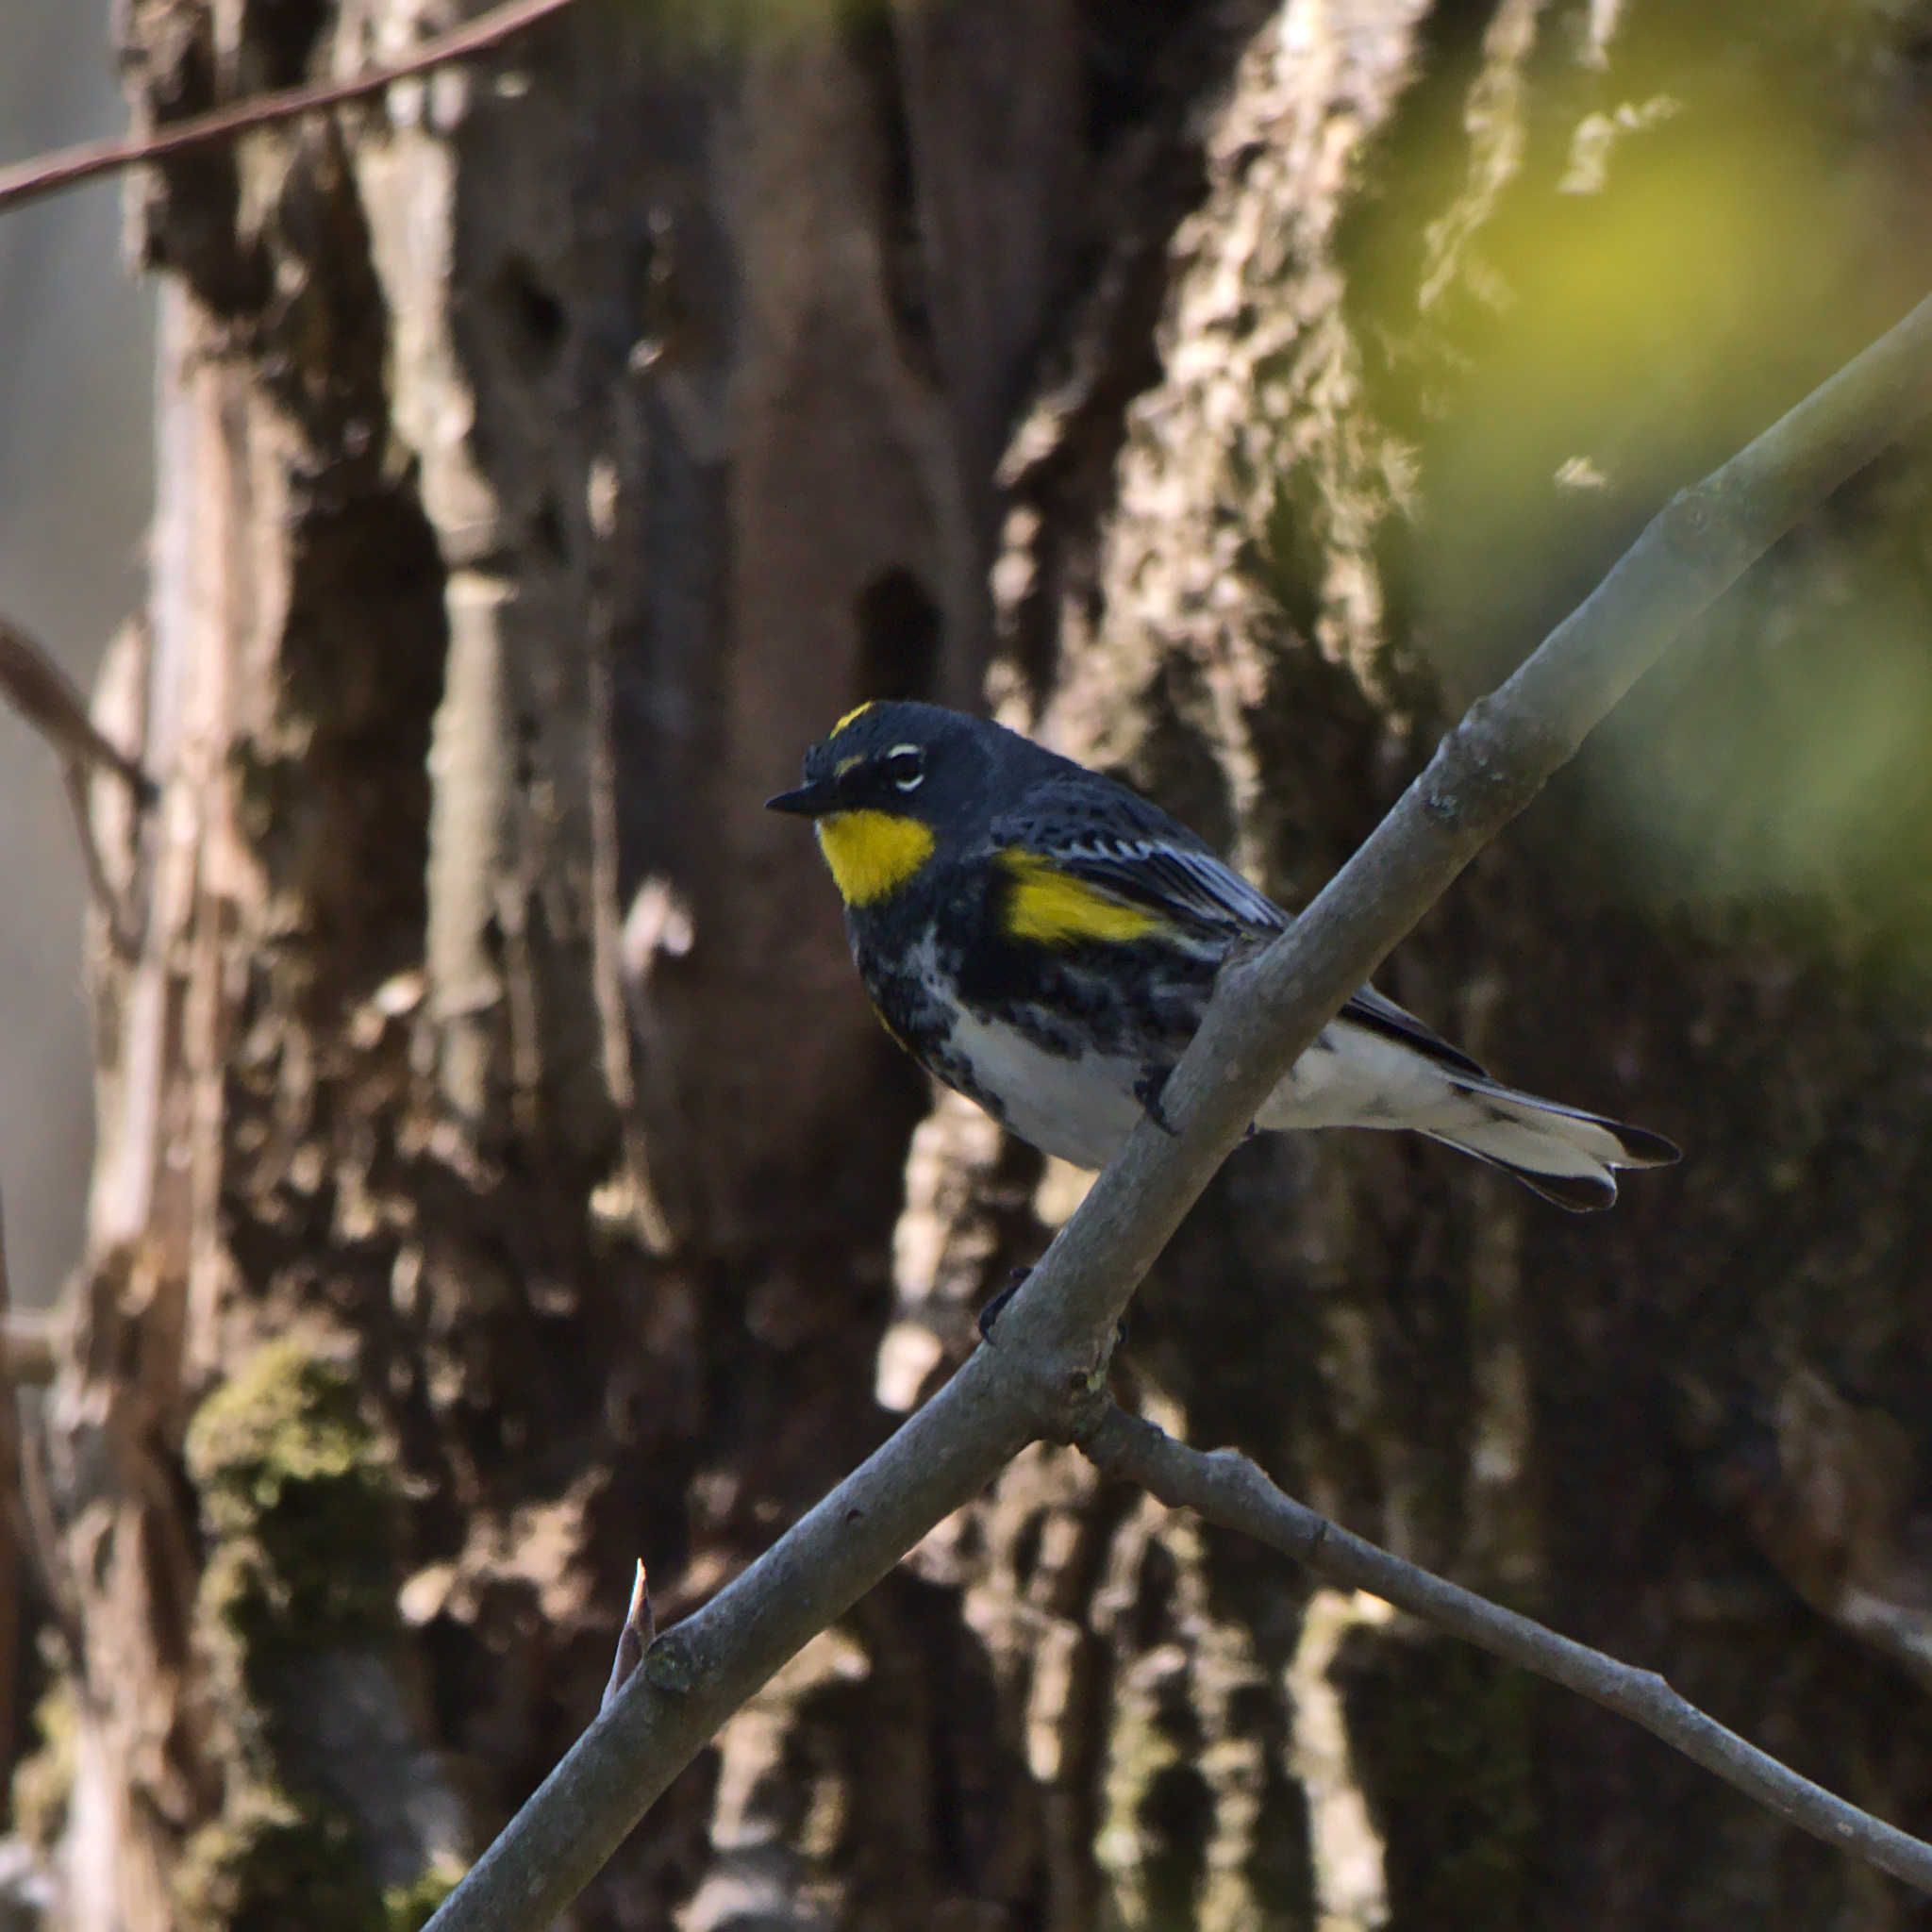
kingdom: Animalia
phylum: Chordata
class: Aves
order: Passeriformes
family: Parulidae
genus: Setophaga
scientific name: Setophaga coronata
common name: Myrtle warbler
